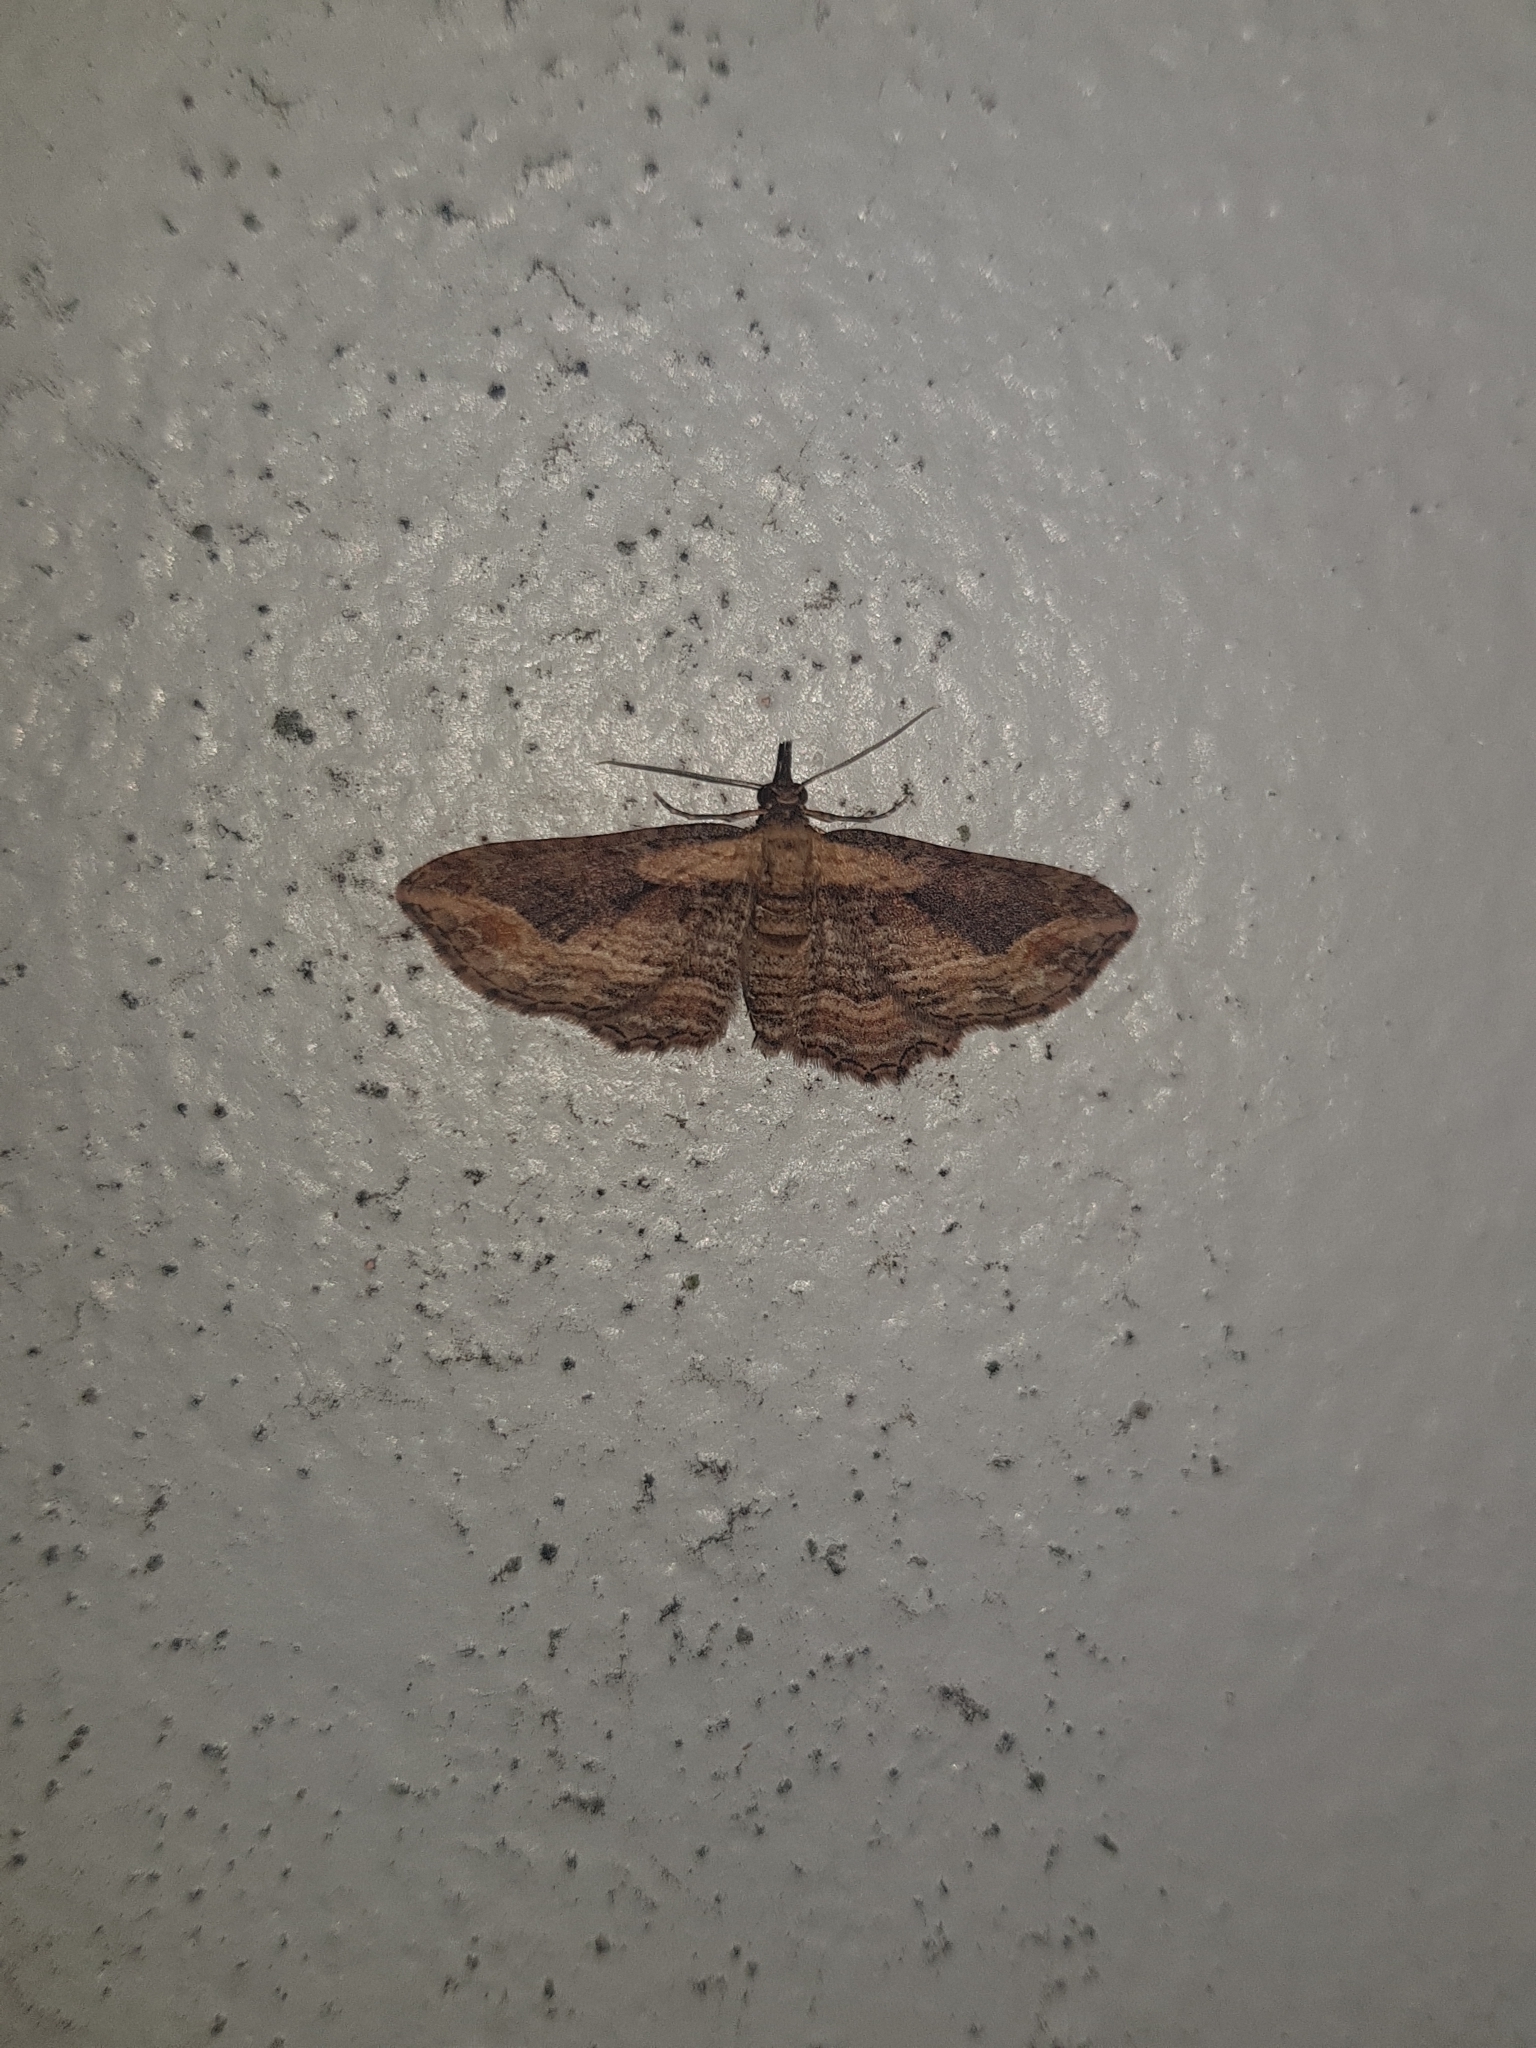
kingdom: Animalia
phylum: Arthropoda
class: Insecta
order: Lepidoptera
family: Geometridae
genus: Chloroclystis
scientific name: Chloroclystis filata
